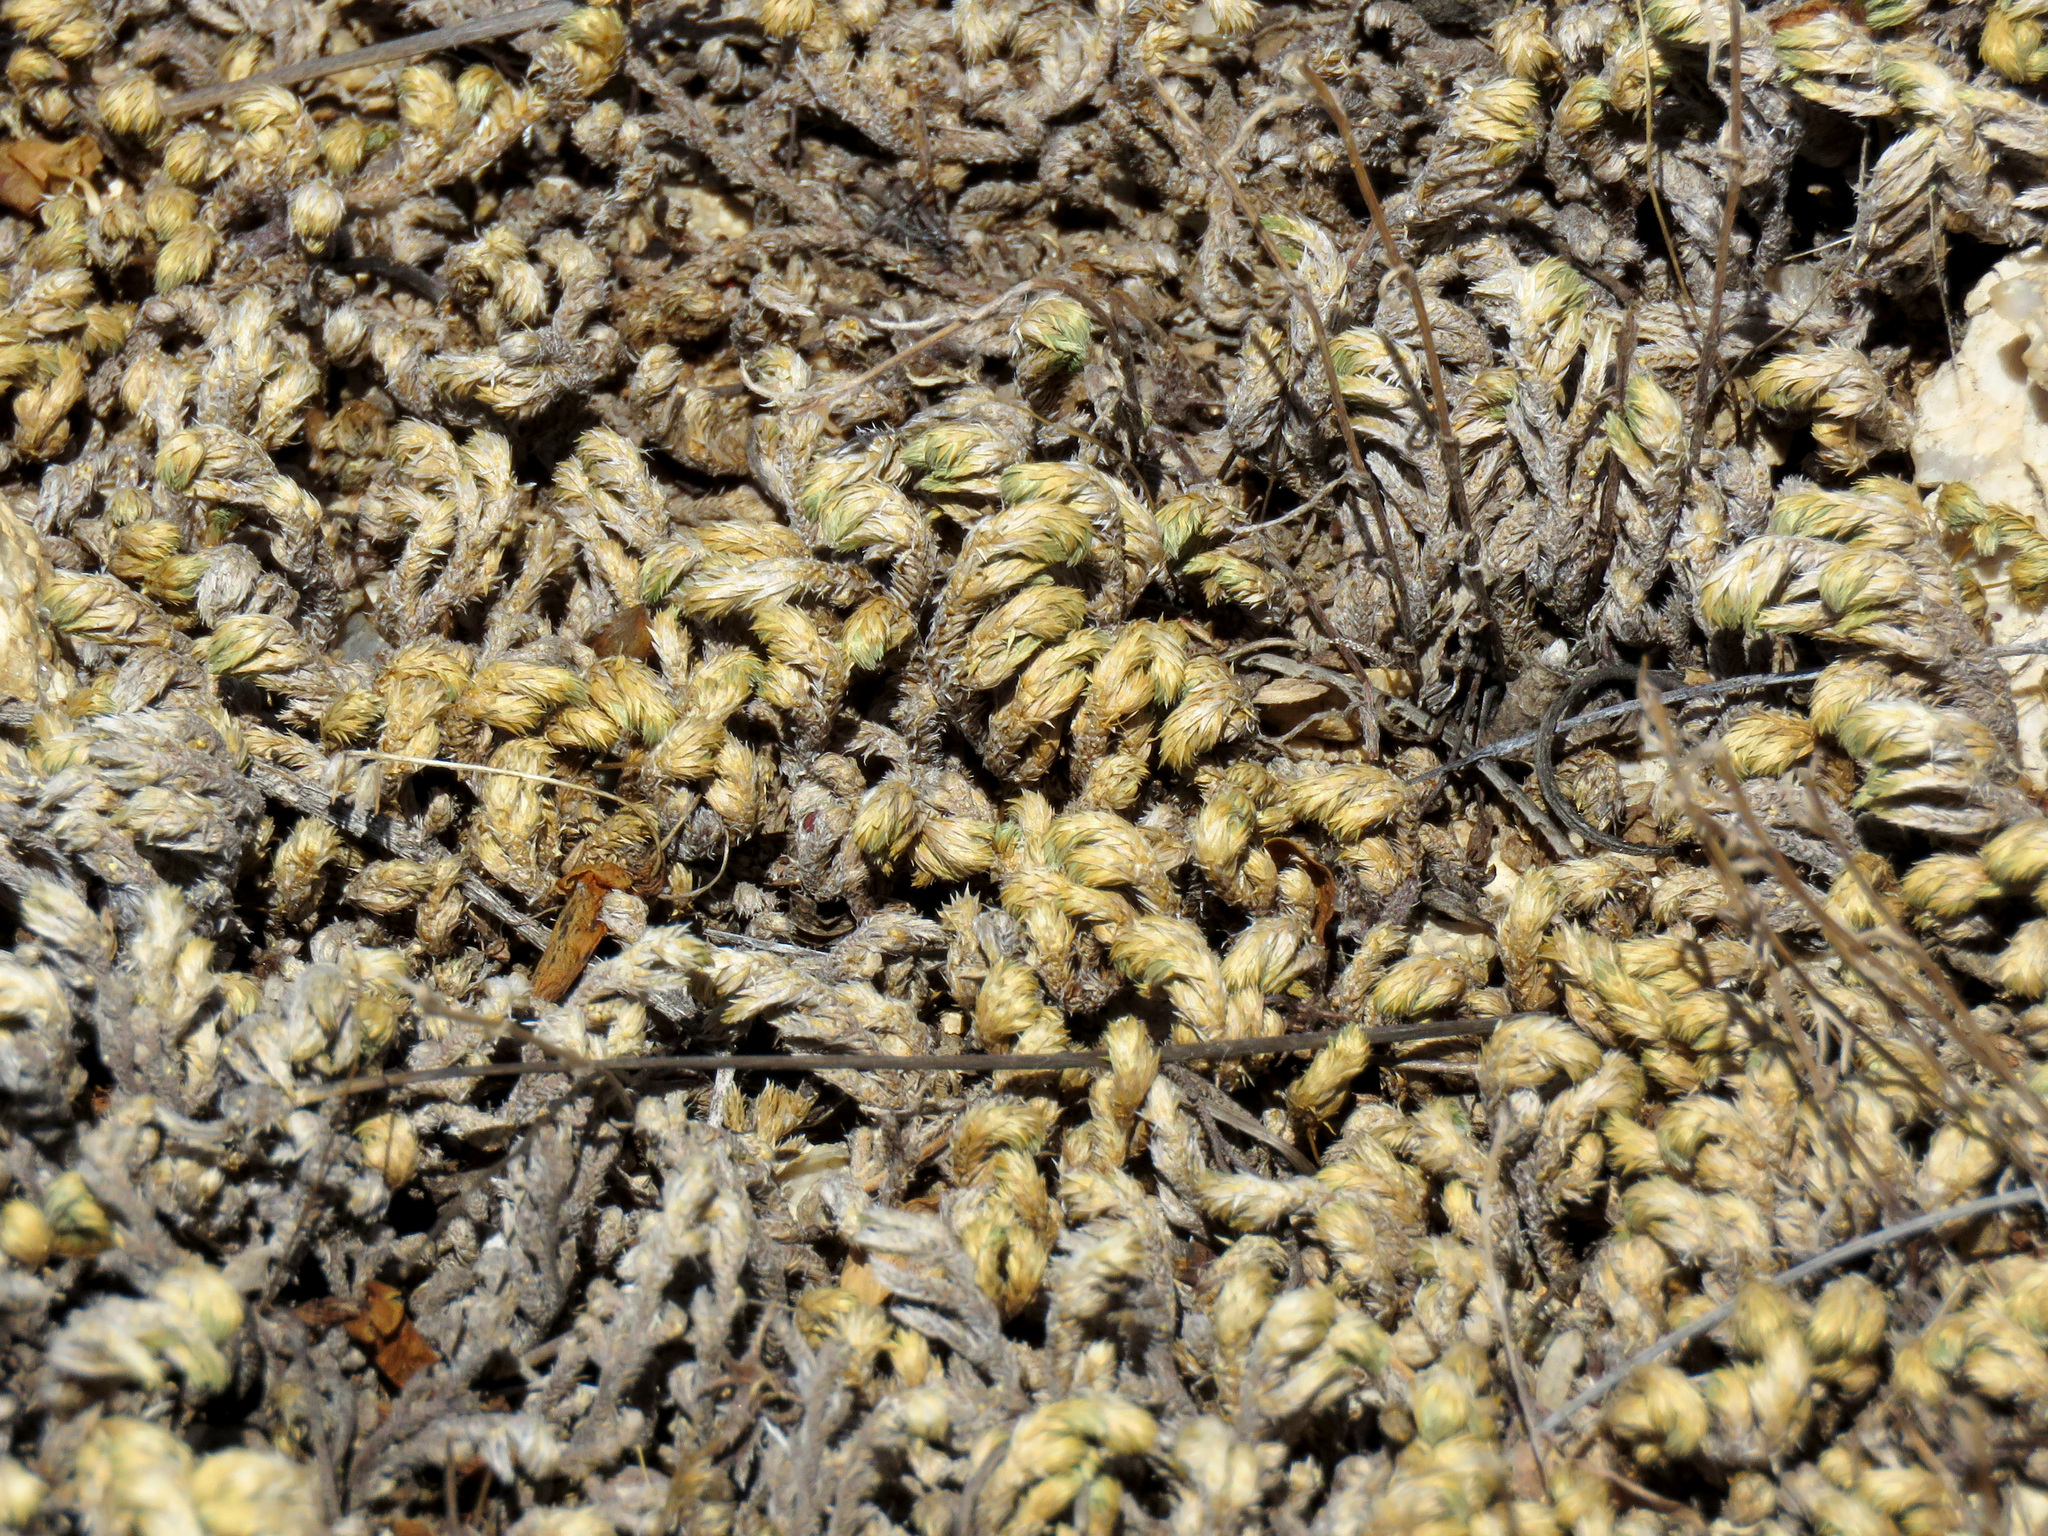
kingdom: Plantae
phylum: Tracheophyta
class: Lycopodiopsida
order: Selaginellales
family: Selaginellaceae
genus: Selaginella
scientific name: Selaginella arizonica
